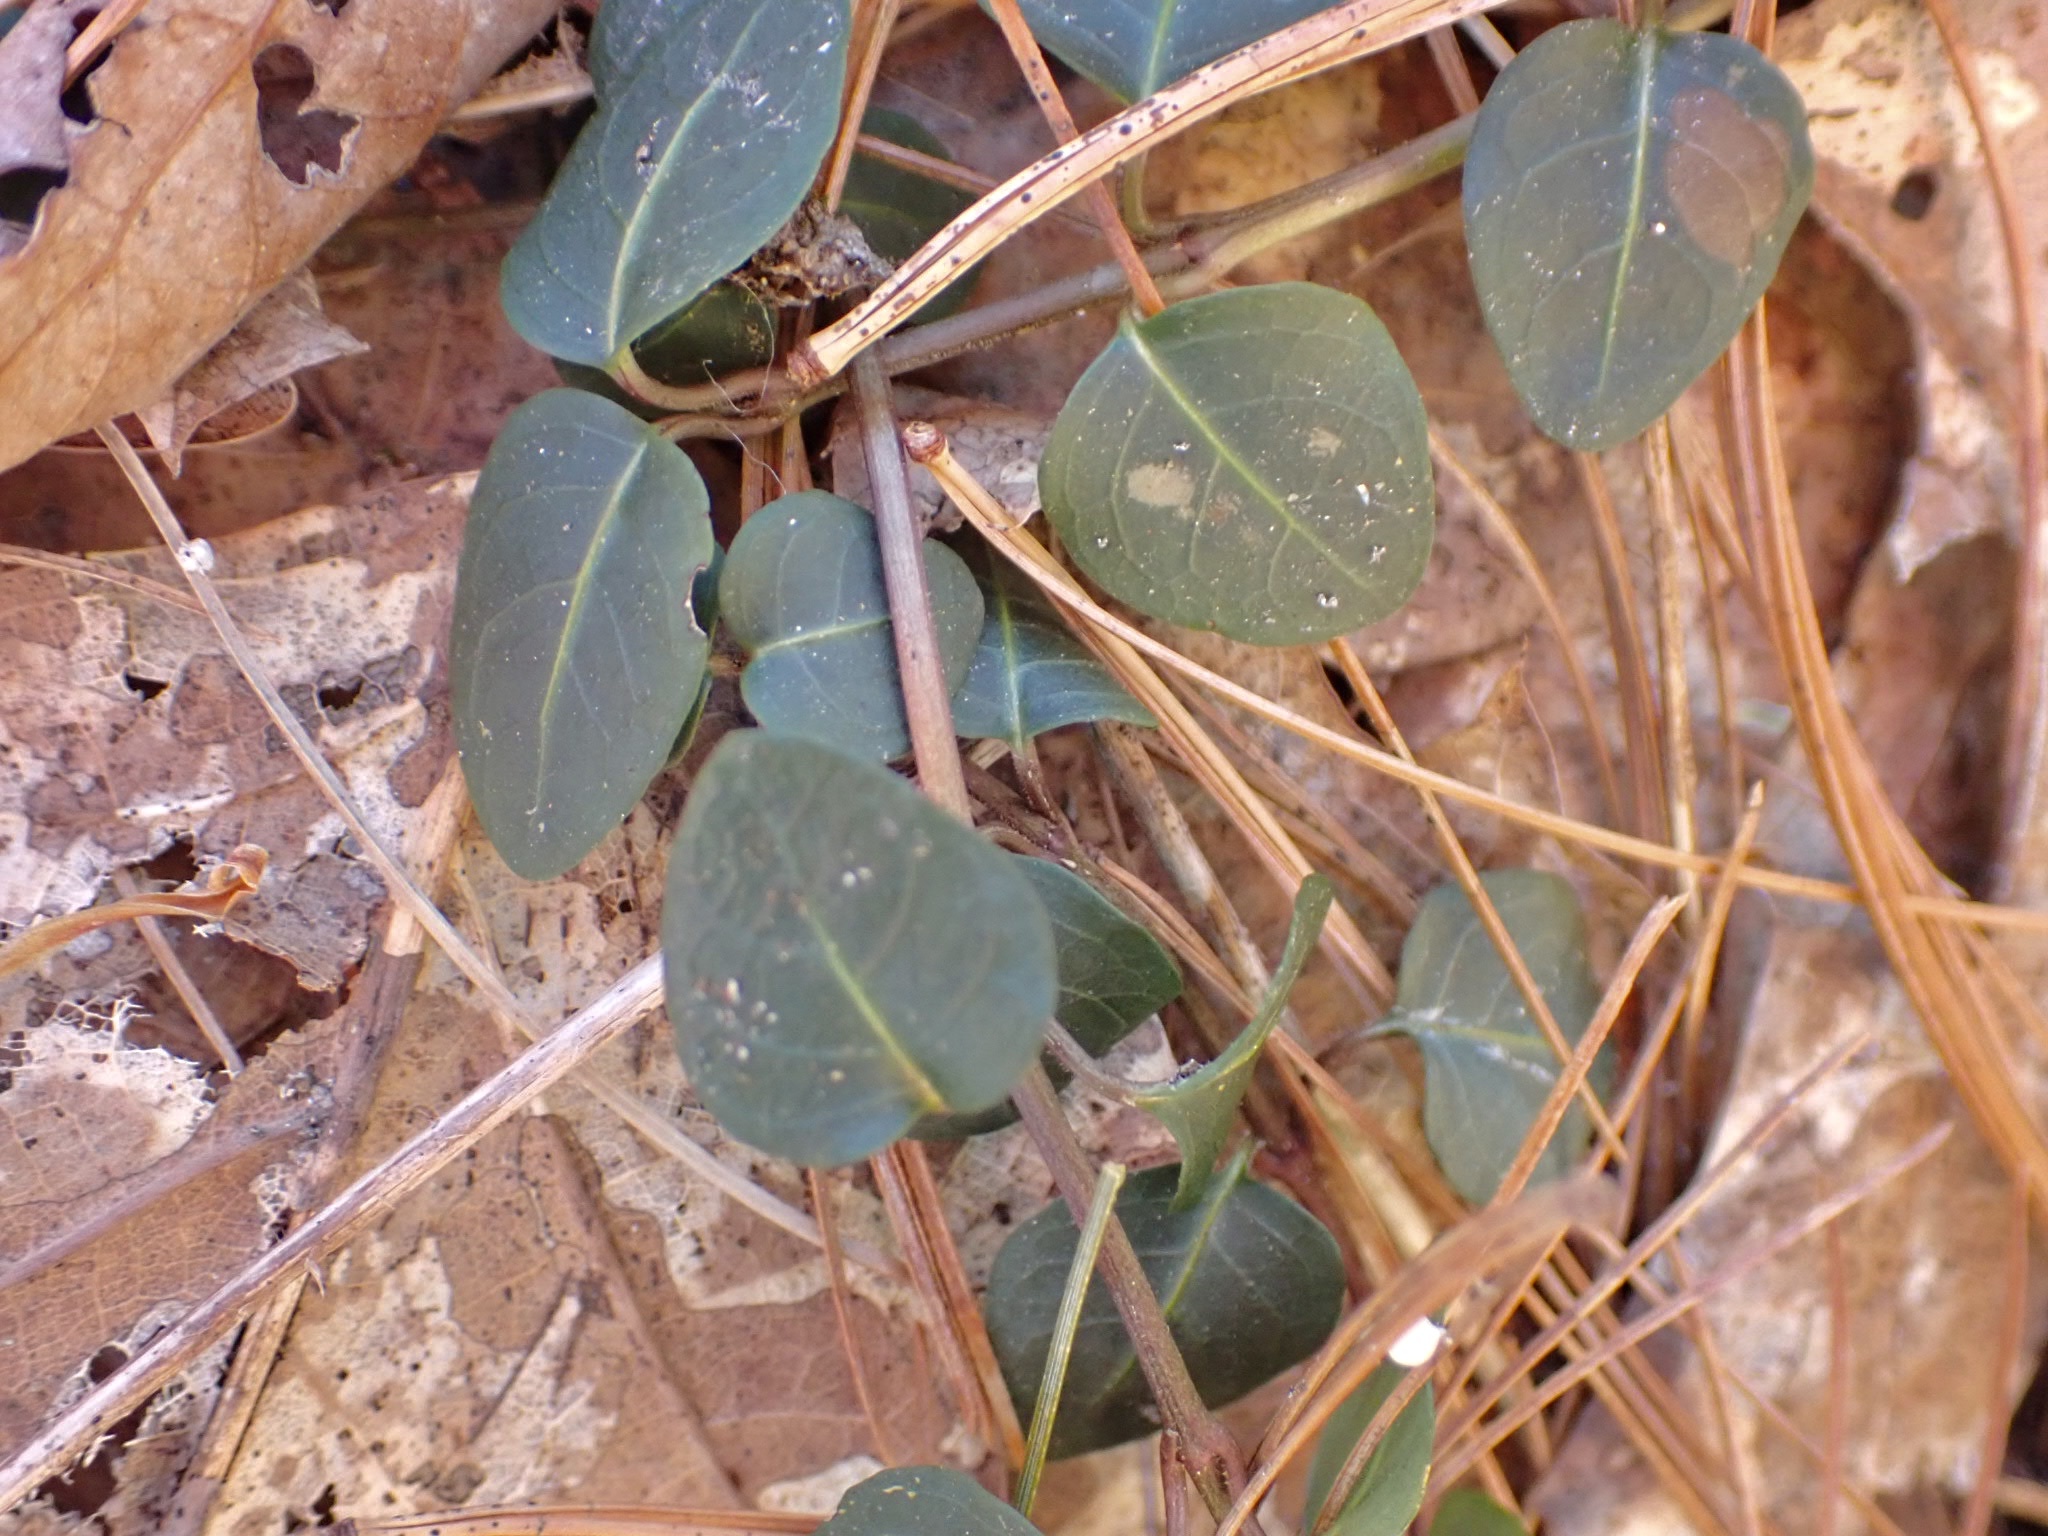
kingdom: Plantae
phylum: Tracheophyta
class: Magnoliopsida
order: Gentianales
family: Rubiaceae
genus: Mitchella
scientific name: Mitchella repens
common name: Partridge-berry
